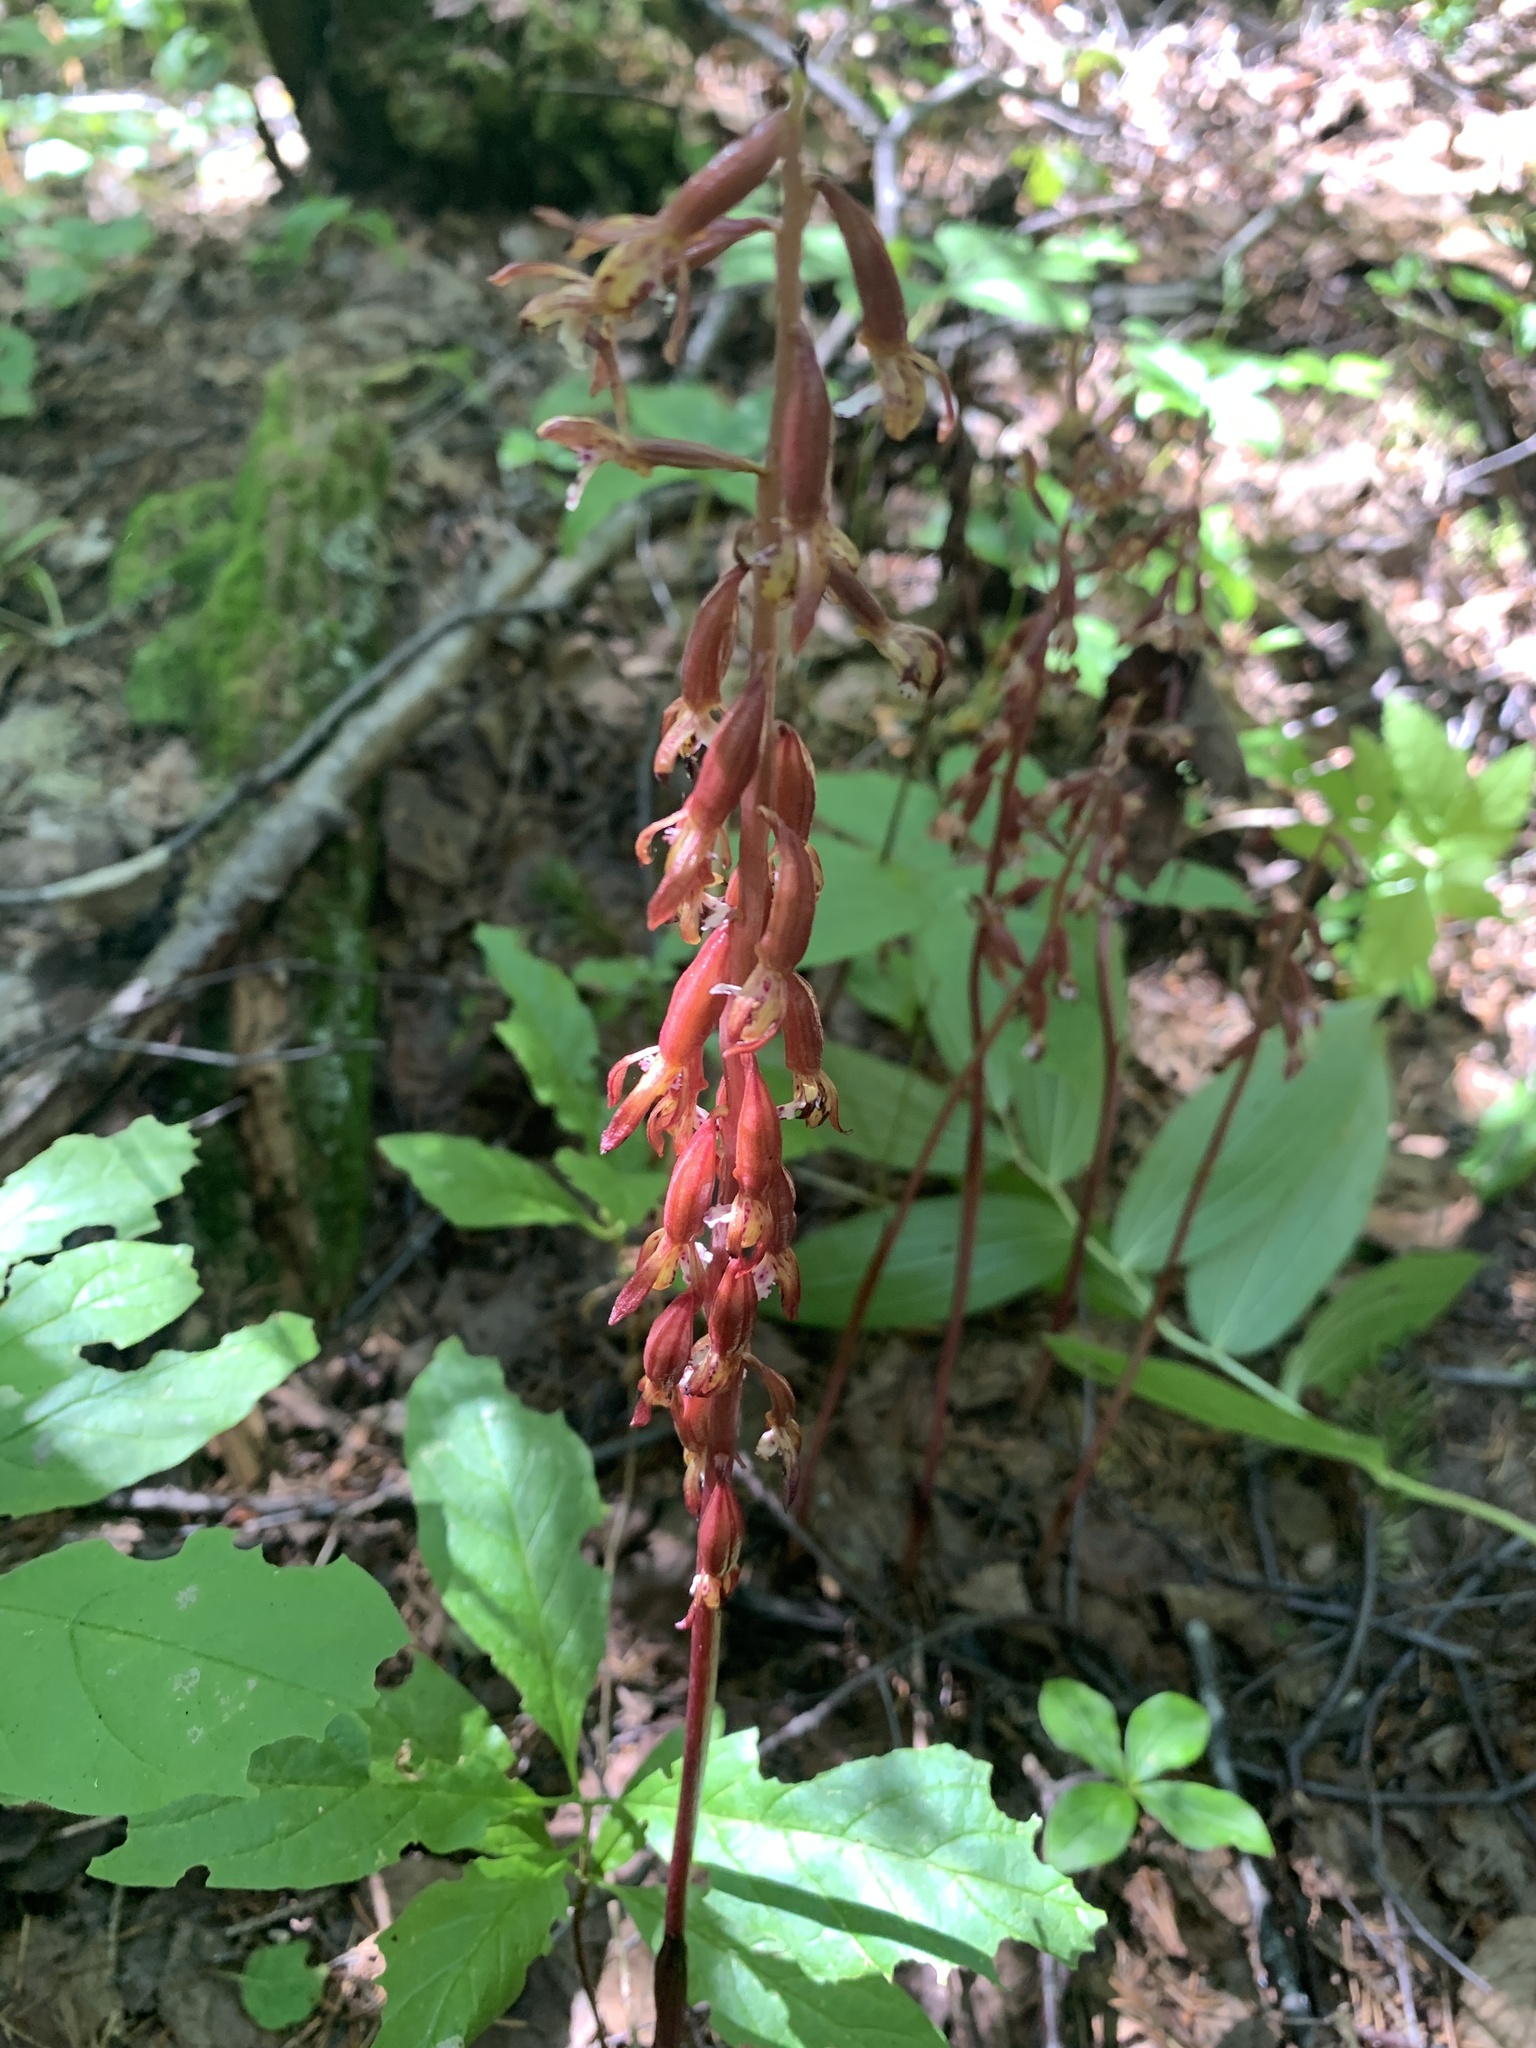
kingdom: Plantae
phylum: Tracheophyta
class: Liliopsida
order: Asparagales
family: Orchidaceae
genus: Corallorhiza
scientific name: Corallorhiza maculata
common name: Spotted coralroot
